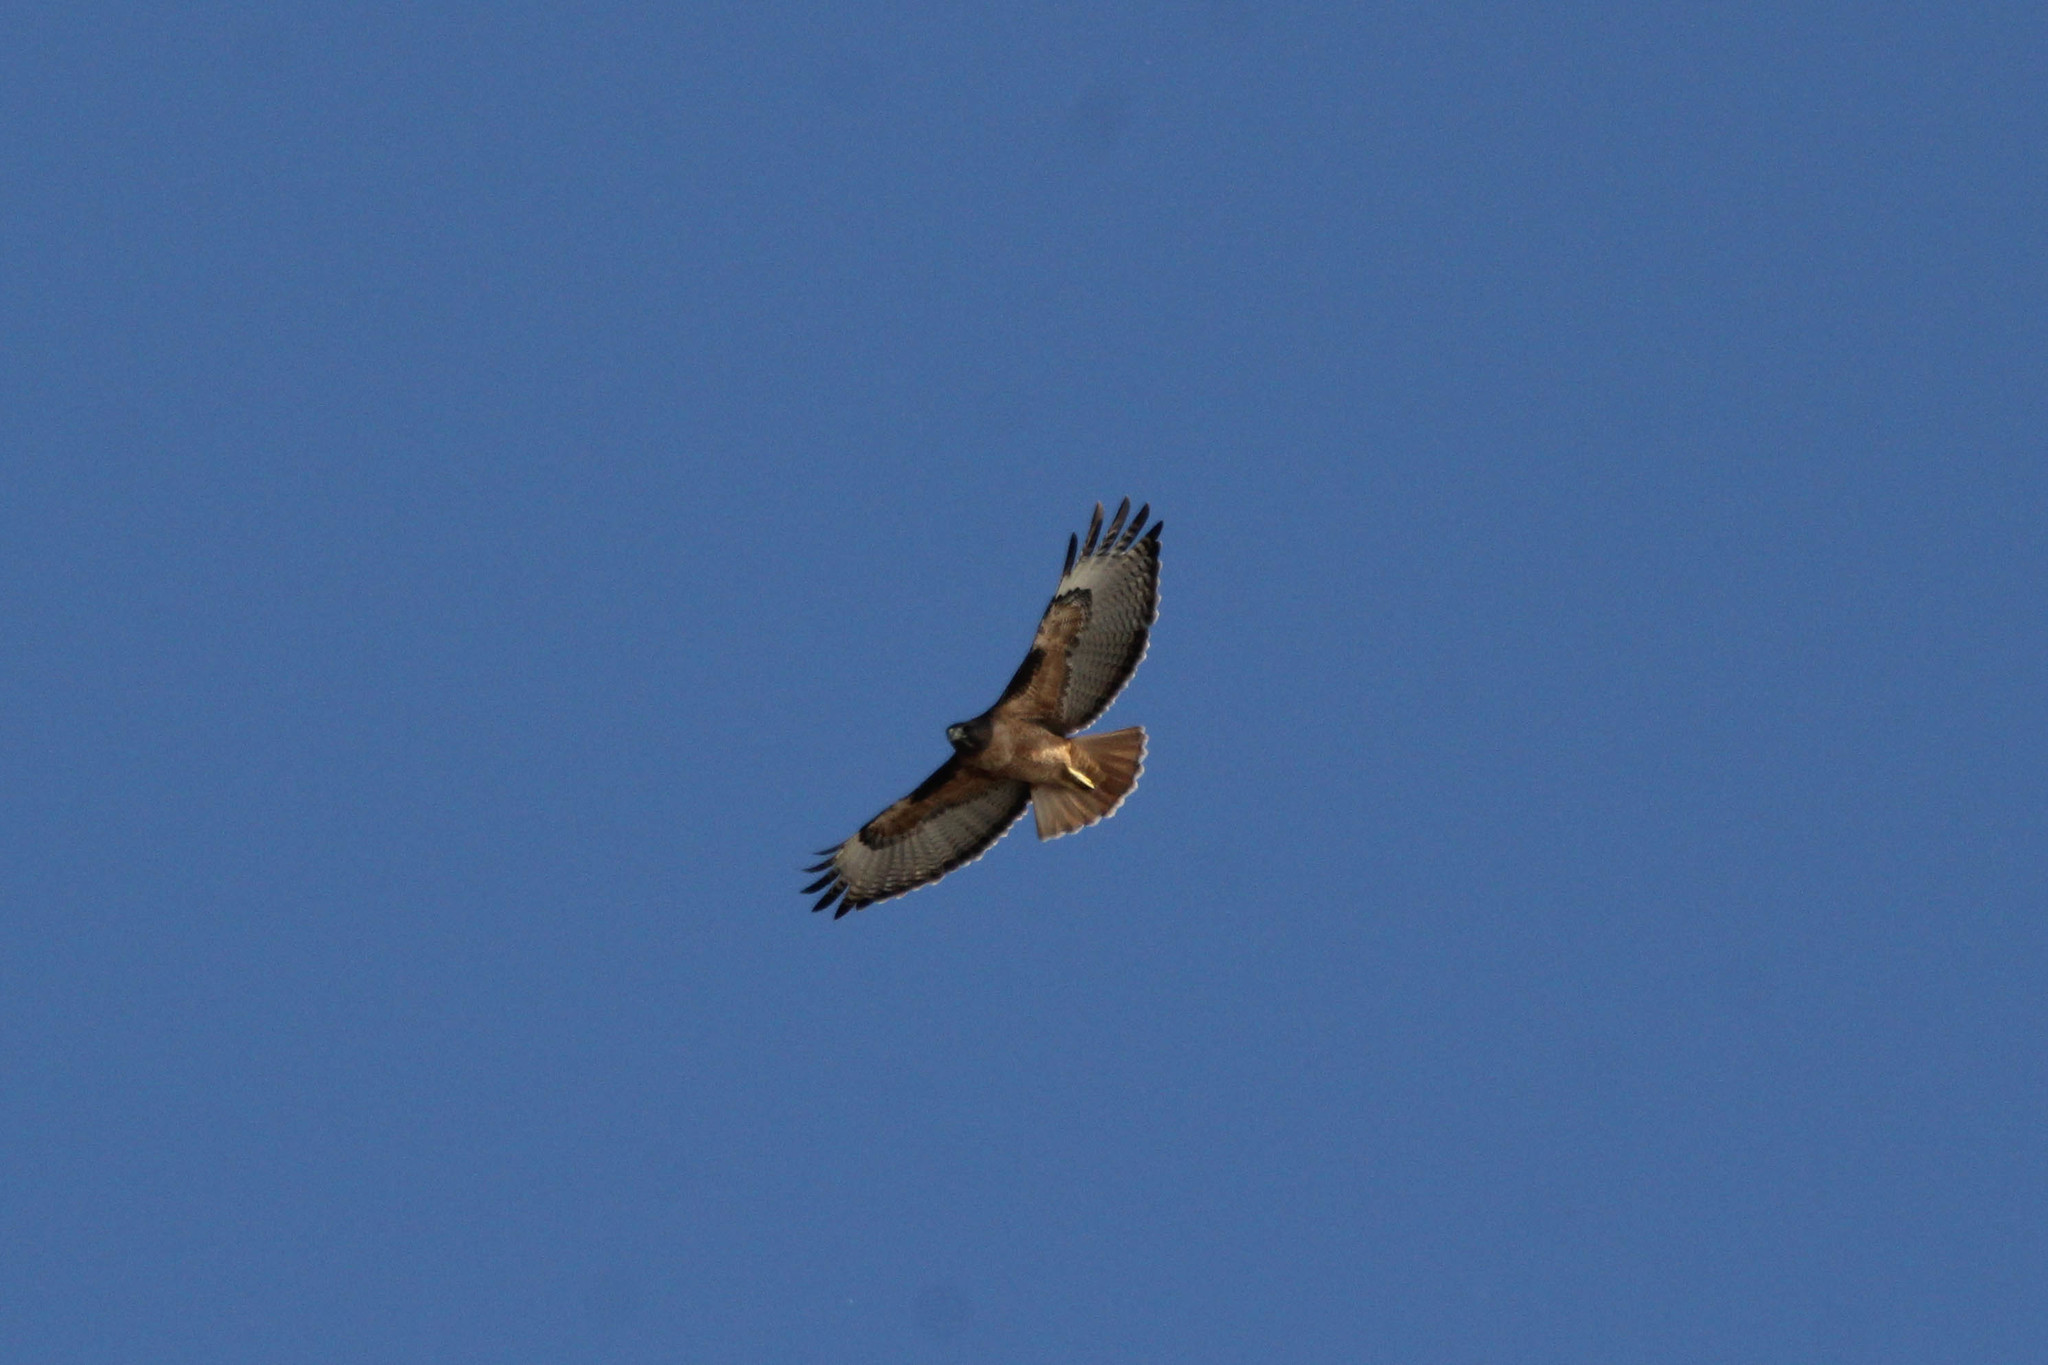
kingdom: Animalia
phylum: Chordata
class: Aves
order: Accipitriformes
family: Accipitridae
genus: Buteo
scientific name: Buteo jamaicensis
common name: Red-tailed hawk
